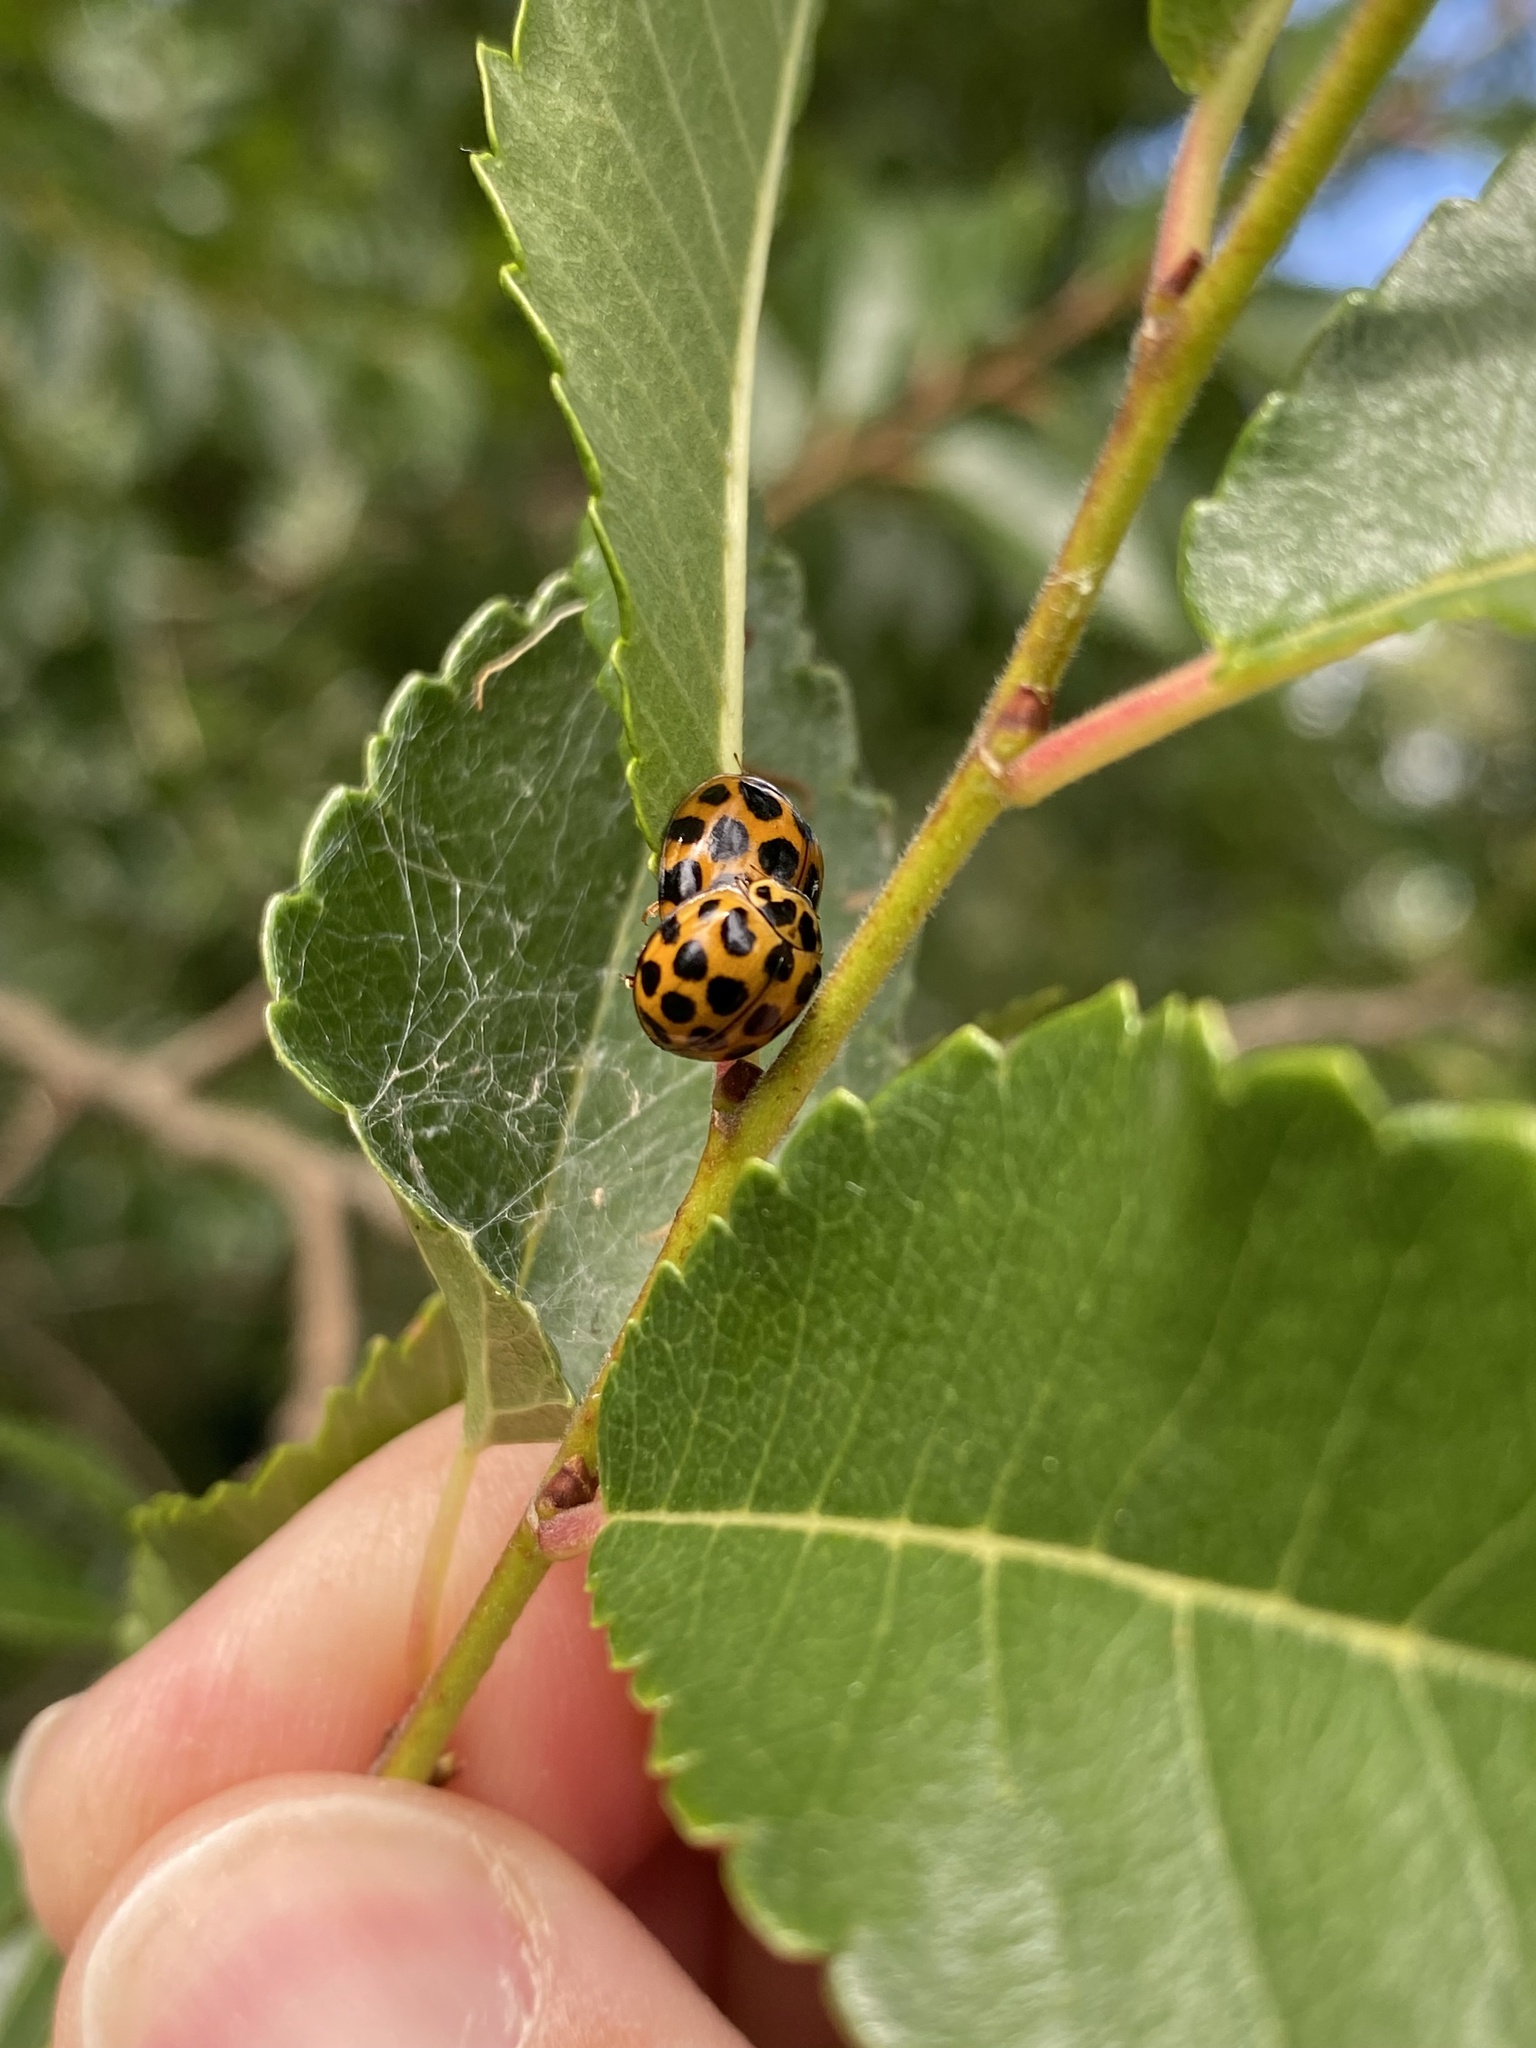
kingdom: Animalia
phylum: Arthropoda
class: Insecta
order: Coleoptera
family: Coccinellidae
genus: Harmonia
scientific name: Harmonia conformis
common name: Common spotted ladybird beetle
